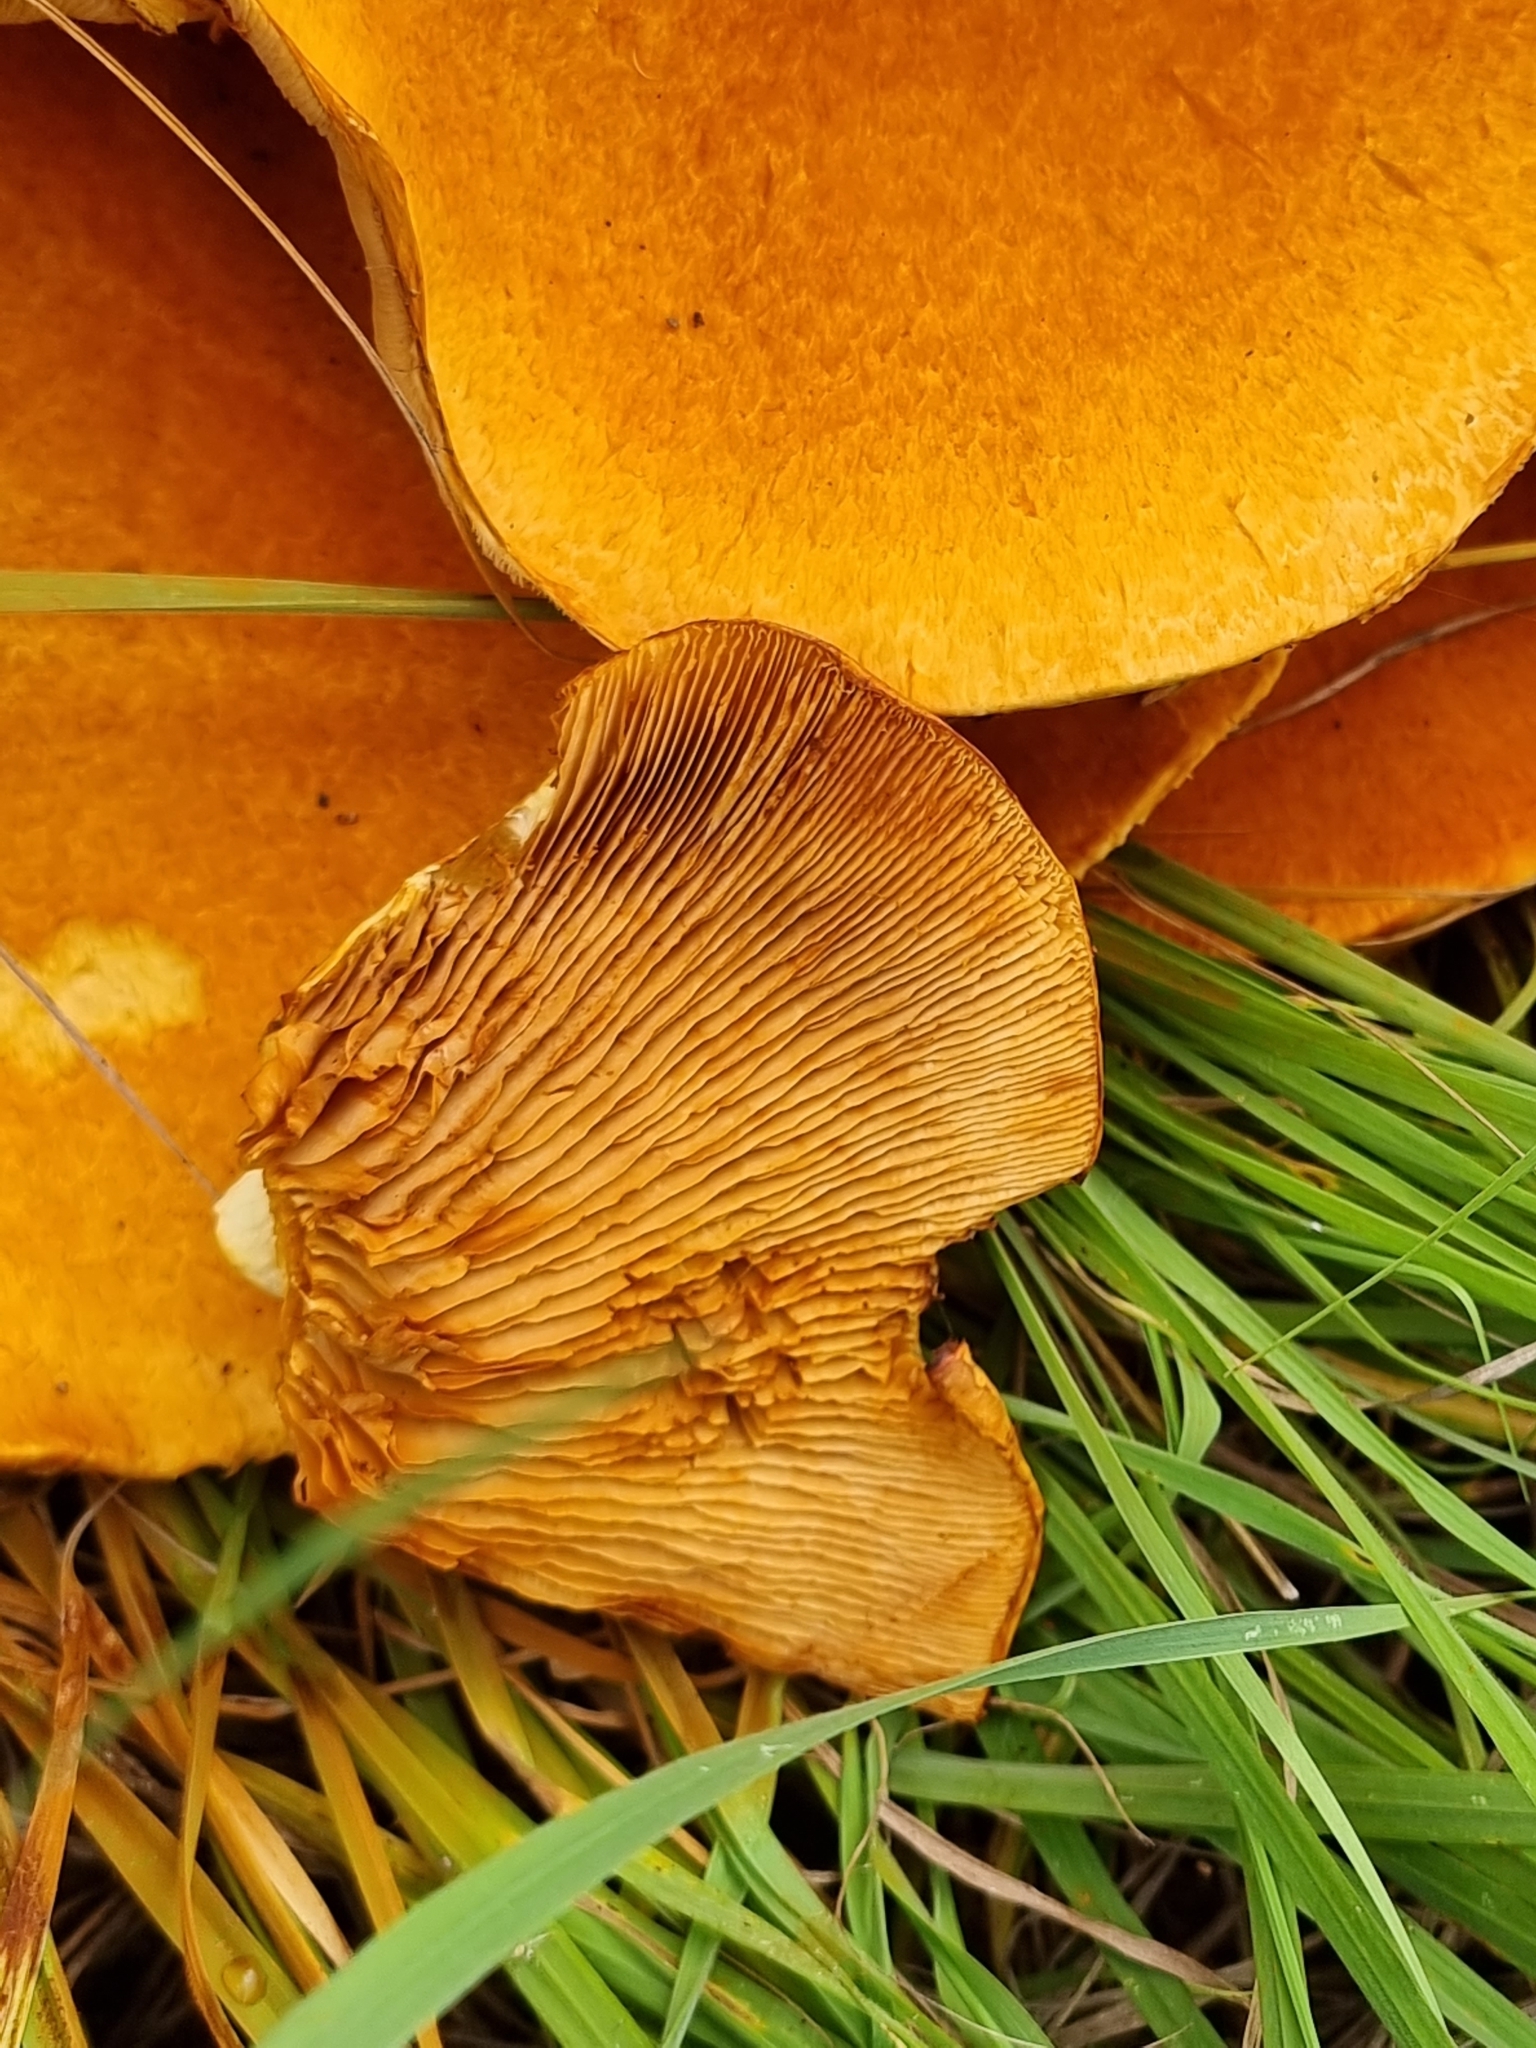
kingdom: Fungi
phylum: Basidiomycota
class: Agaricomycetes
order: Agaricales
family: Hymenogastraceae
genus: Gymnopilus
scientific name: Gymnopilus junonius
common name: Spectacular rustgill
